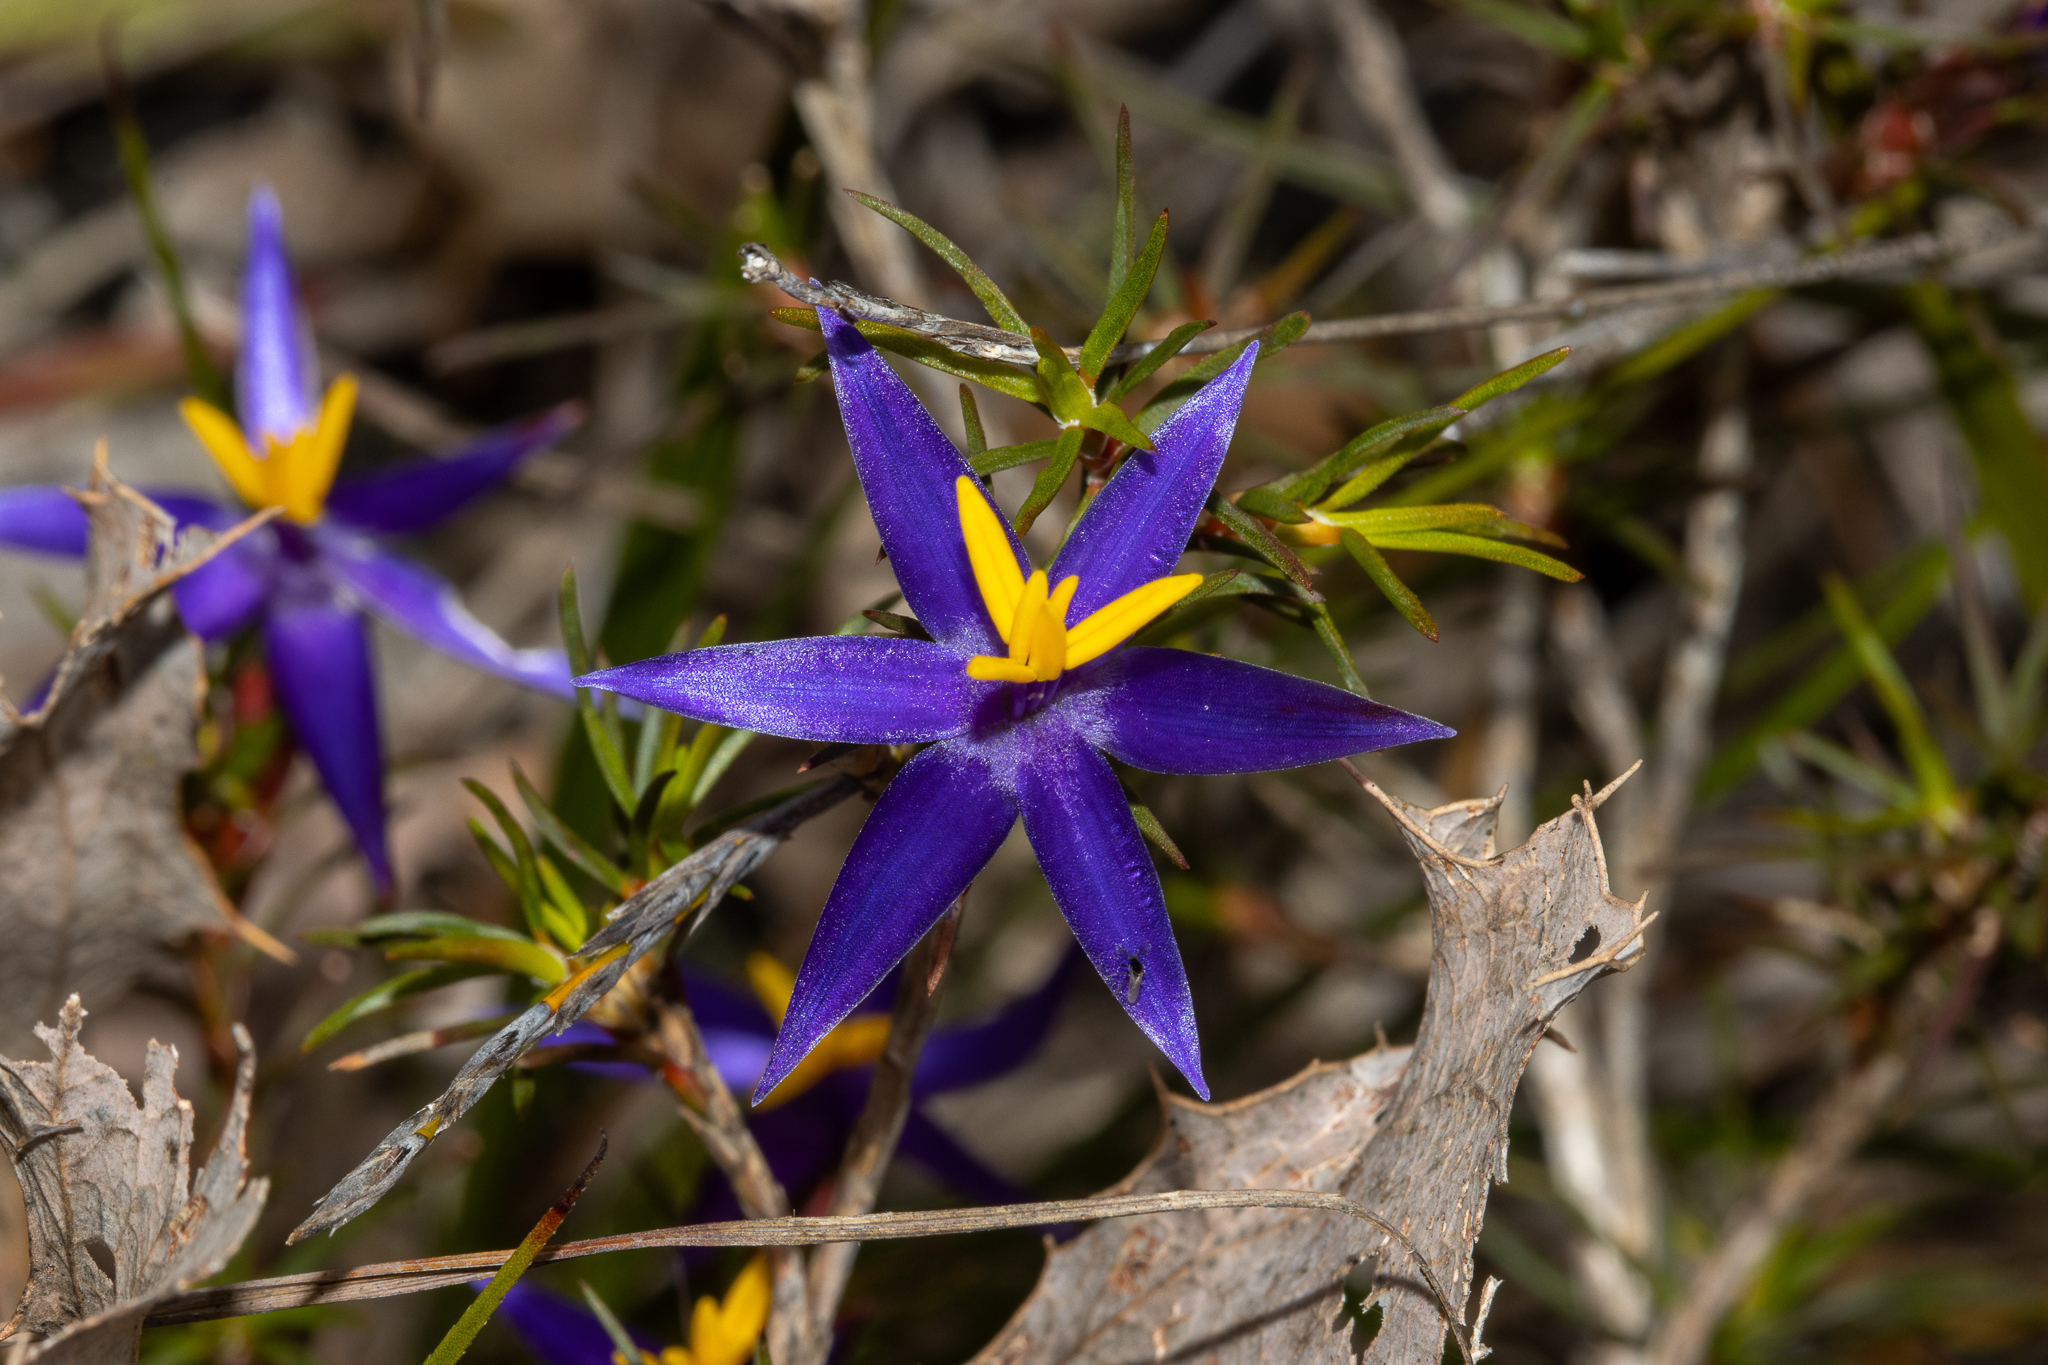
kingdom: Plantae
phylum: Tracheophyta
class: Liliopsida
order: Arecales
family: Dasypogonaceae
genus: Calectasia
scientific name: Calectasia demarzii
